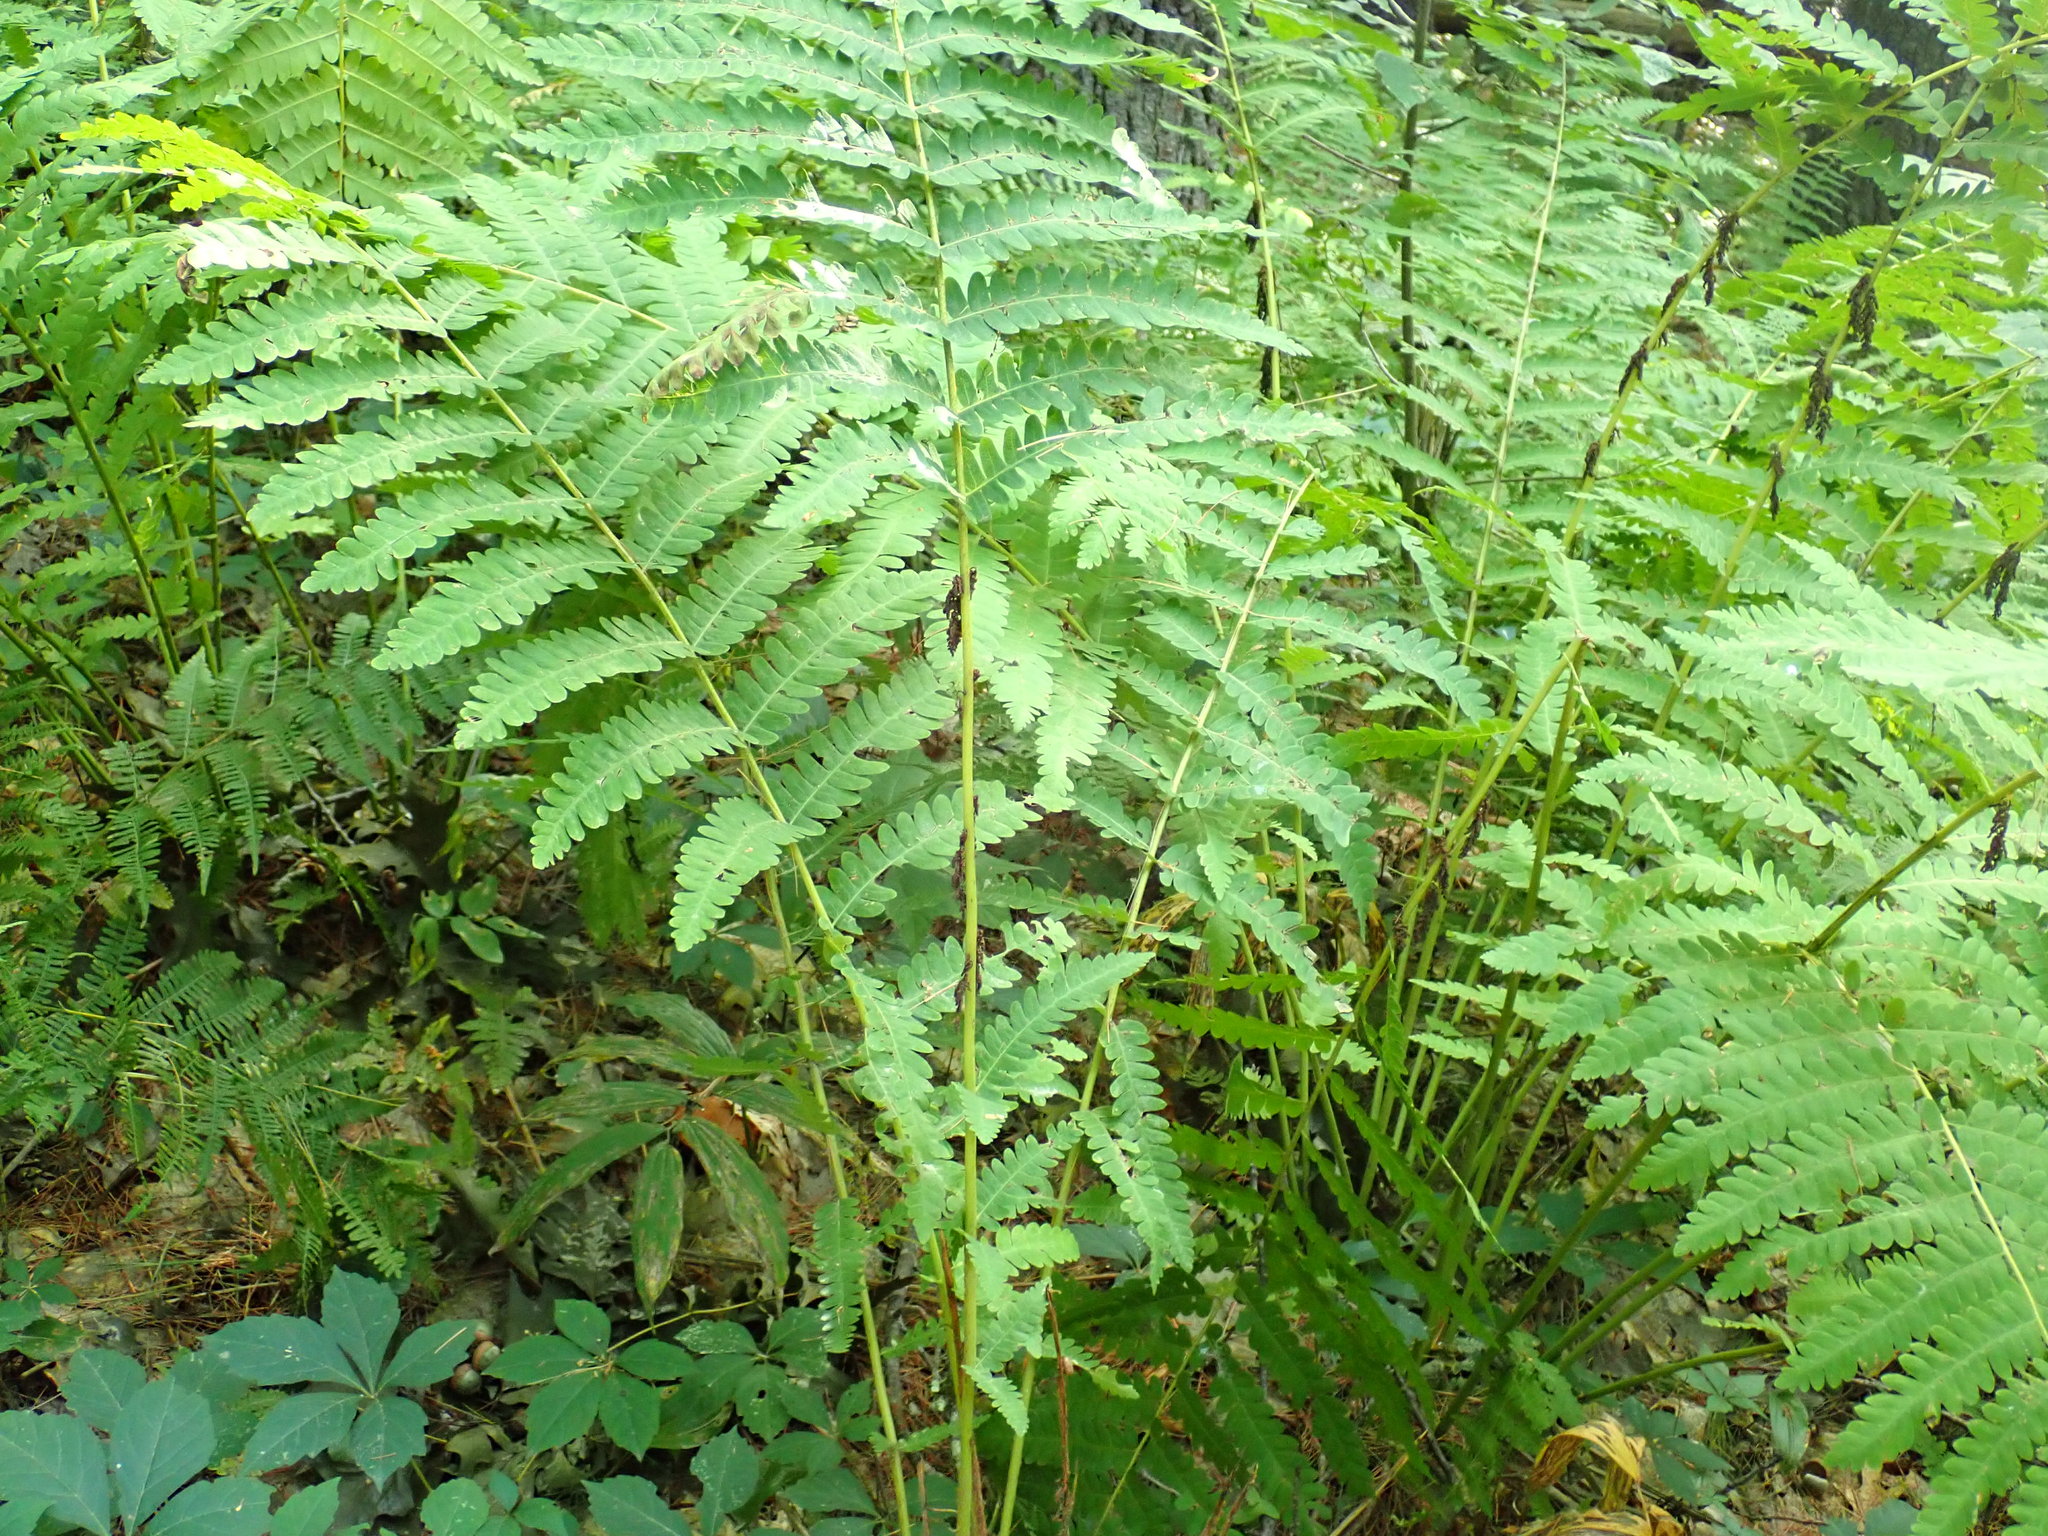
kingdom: Plantae
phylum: Tracheophyta
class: Polypodiopsida
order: Osmundales
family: Osmundaceae
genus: Claytosmunda
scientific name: Claytosmunda claytoniana
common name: Clayton's fern
